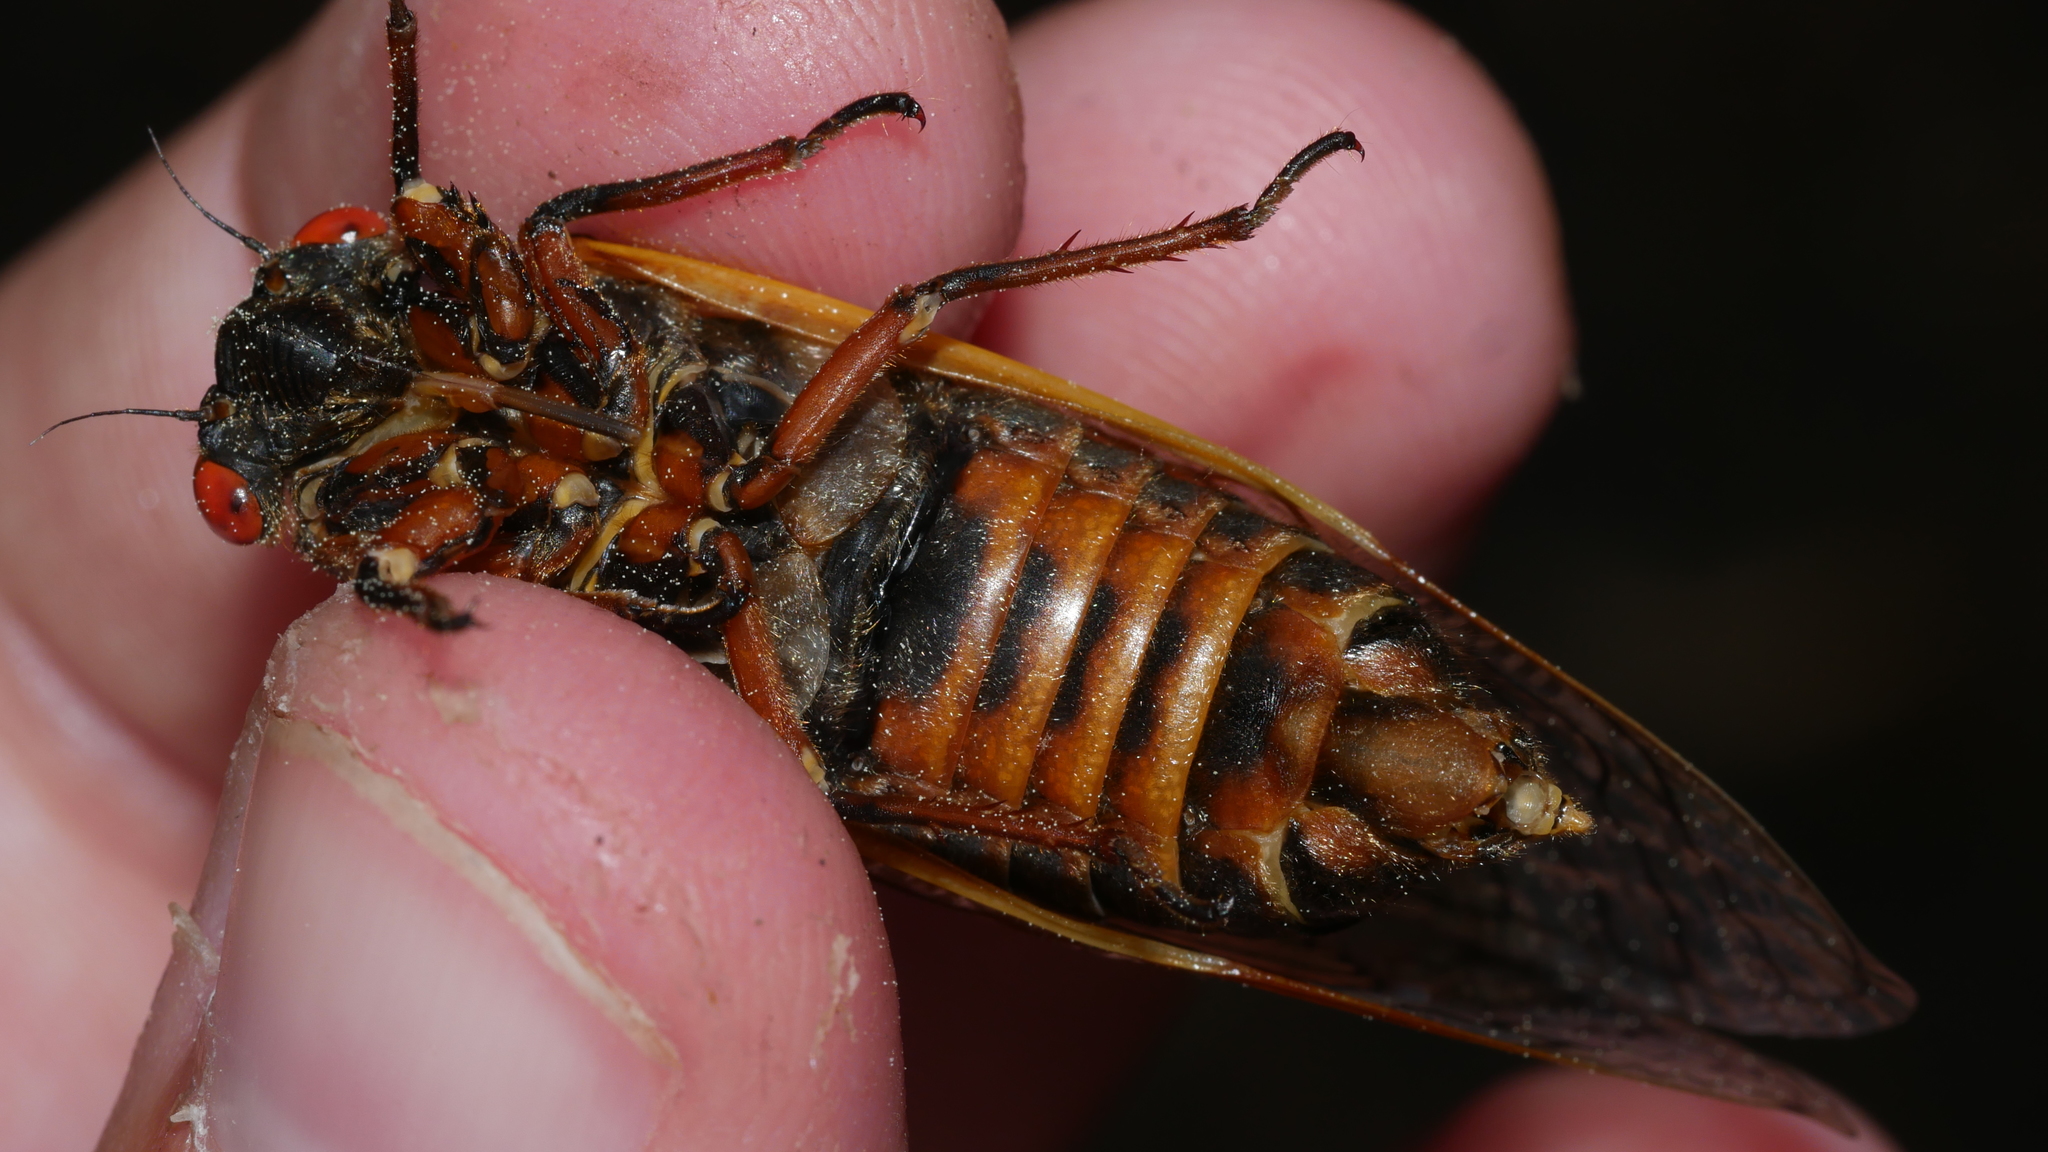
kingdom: Animalia
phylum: Arthropoda
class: Insecta
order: Hemiptera
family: Cicadidae
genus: Magicicada
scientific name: Magicicada septendecim
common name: Periodical cicada
